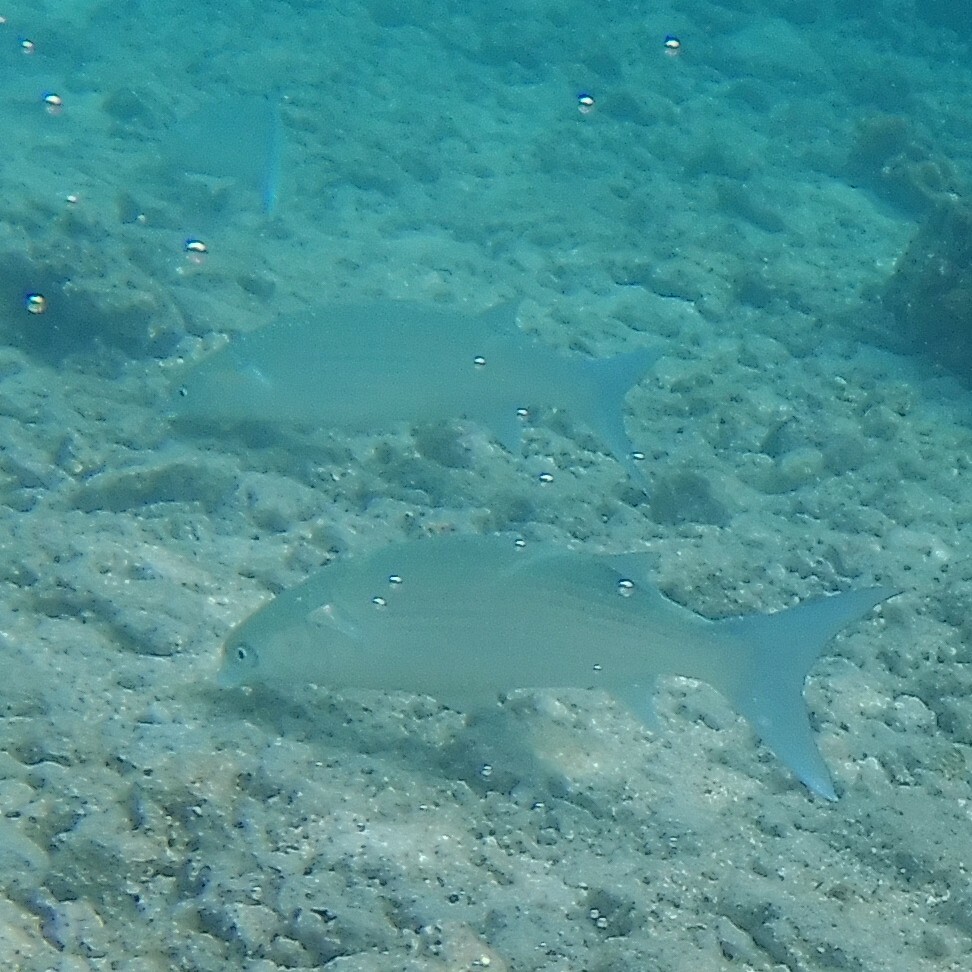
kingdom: Animalia
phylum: Chordata
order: Mugiliformes
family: Mugilidae
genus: Crenimugil
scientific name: Crenimugil crenilabis
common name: Fringelip mullet
